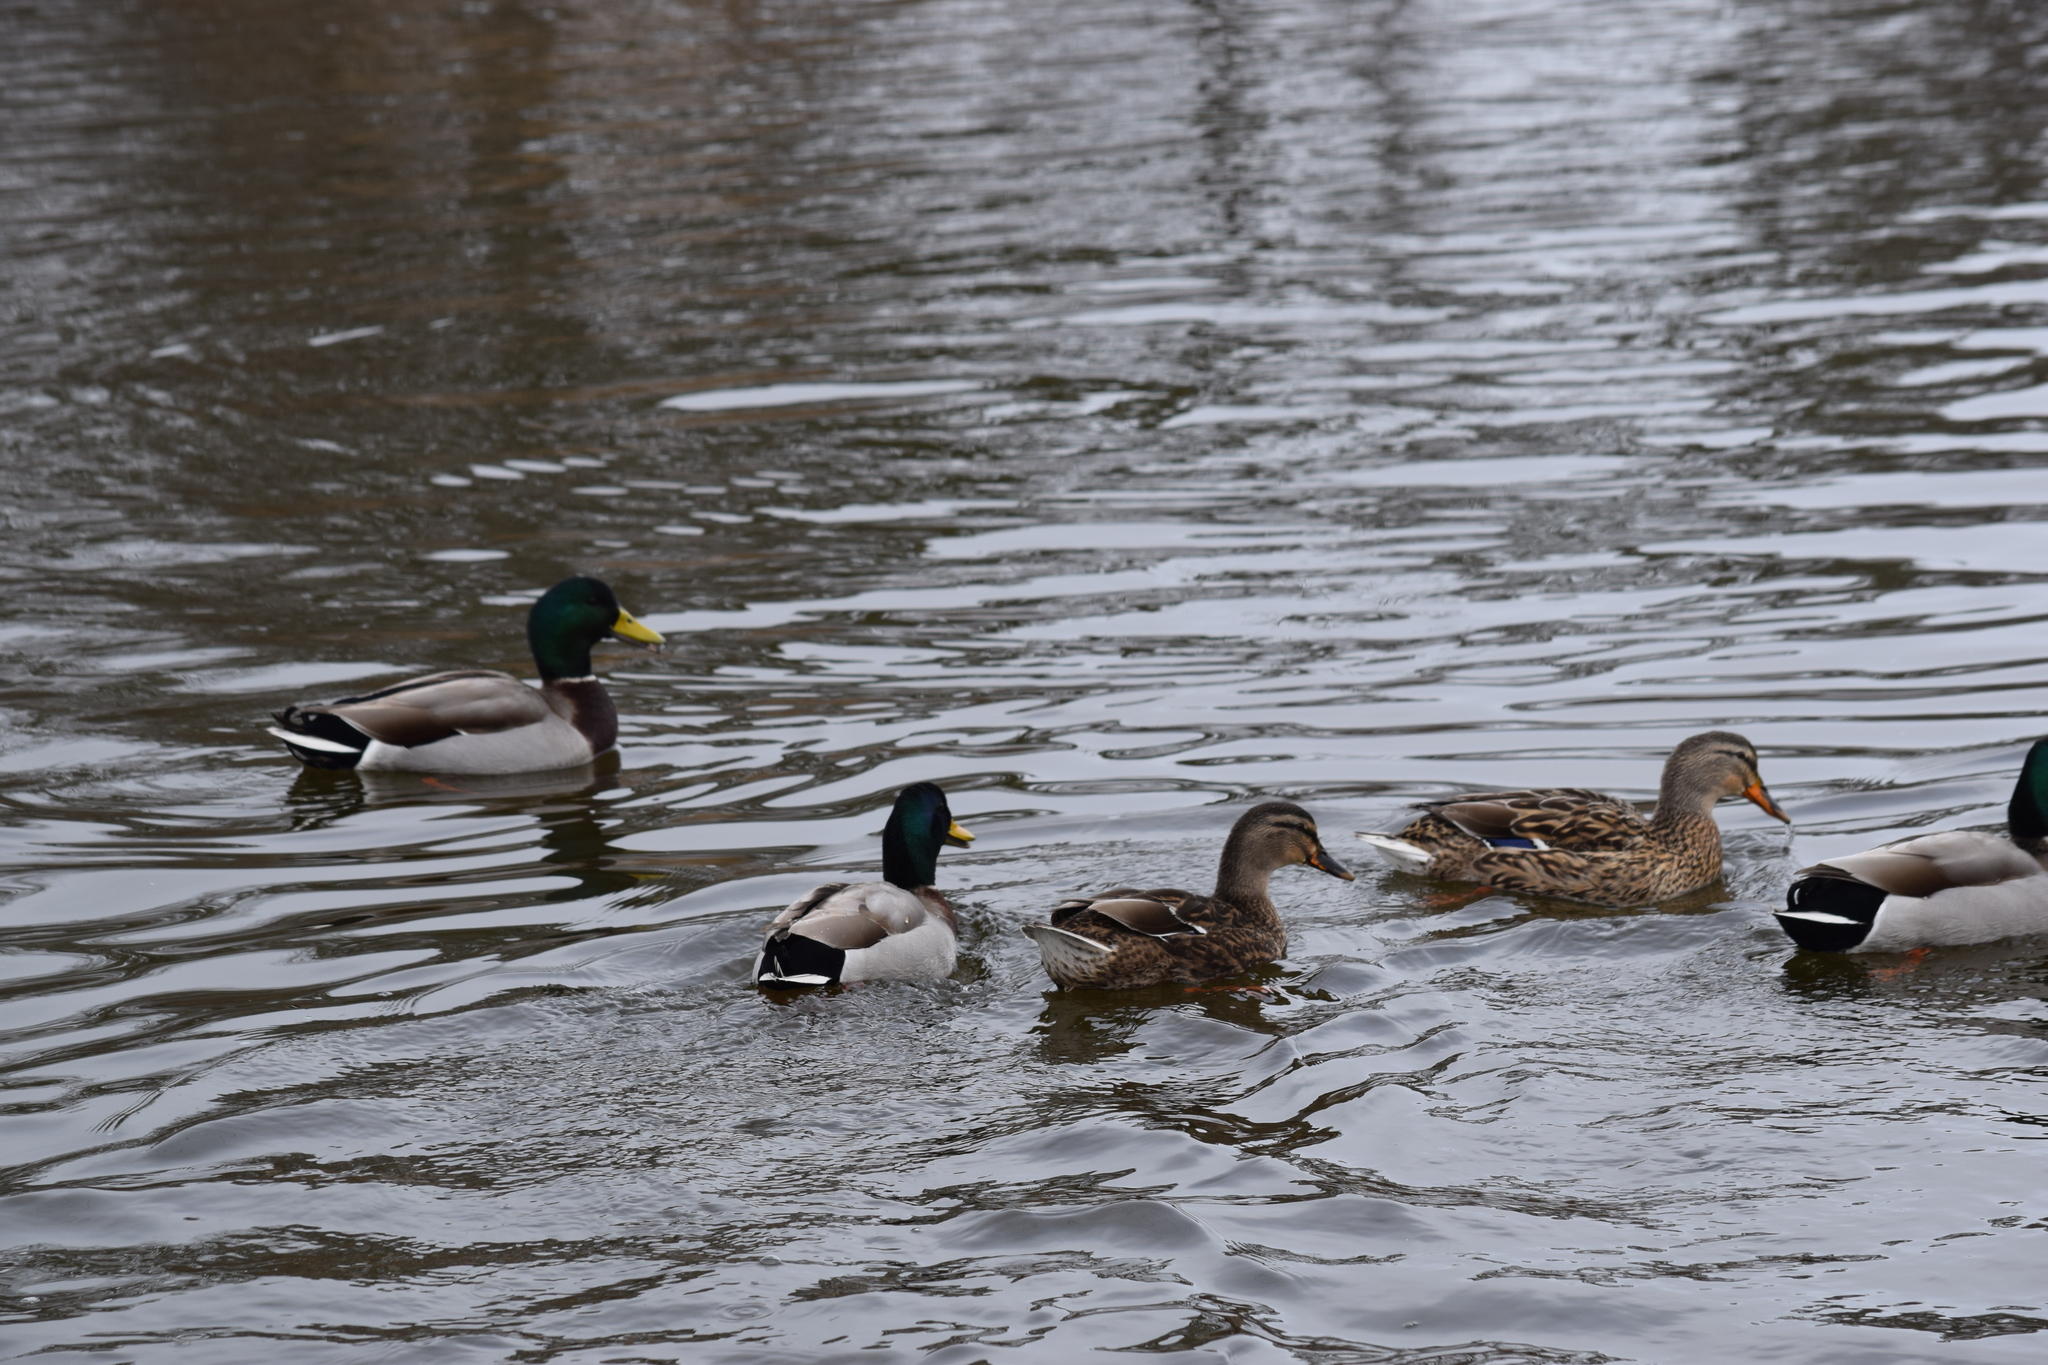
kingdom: Animalia
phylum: Chordata
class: Aves
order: Anseriformes
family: Anatidae
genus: Anas
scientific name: Anas platyrhynchos
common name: Mallard
